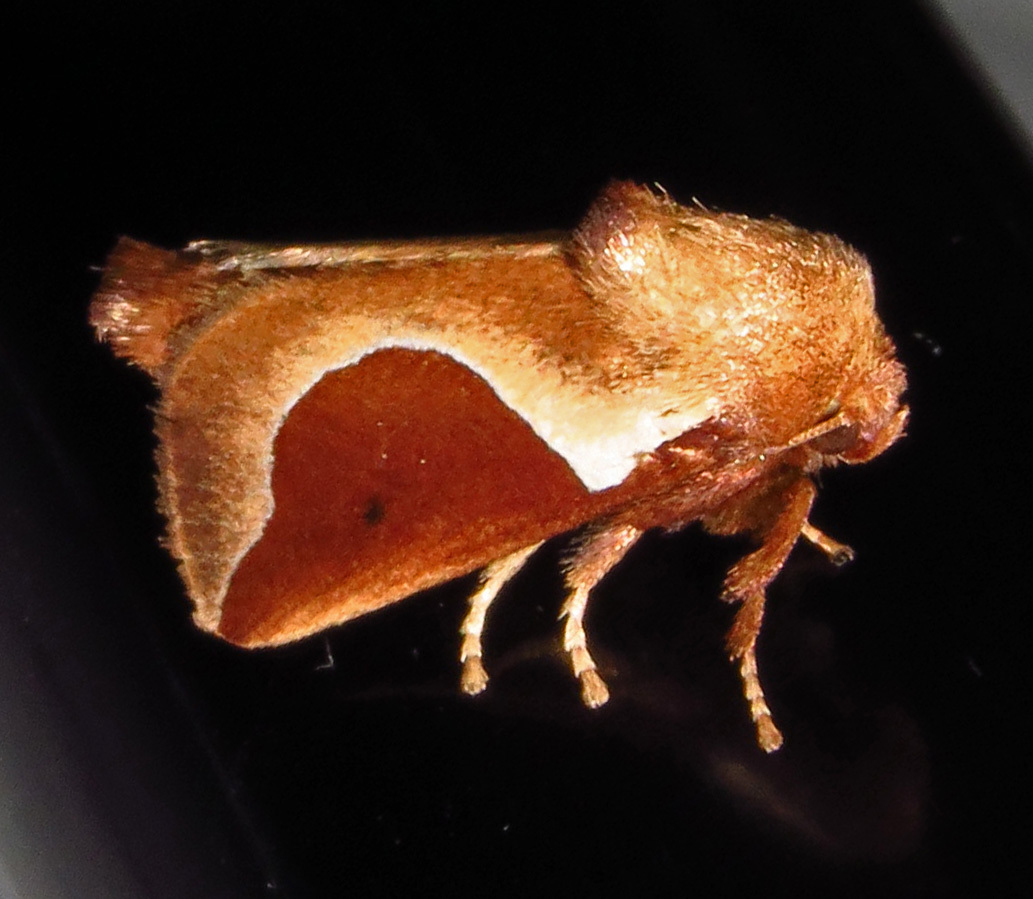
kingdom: Animalia
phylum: Arthropoda
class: Insecta
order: Lepidoptera
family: Limacodidae
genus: Prolimacodes
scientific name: Prolimacodes badia
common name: Skiff moth
